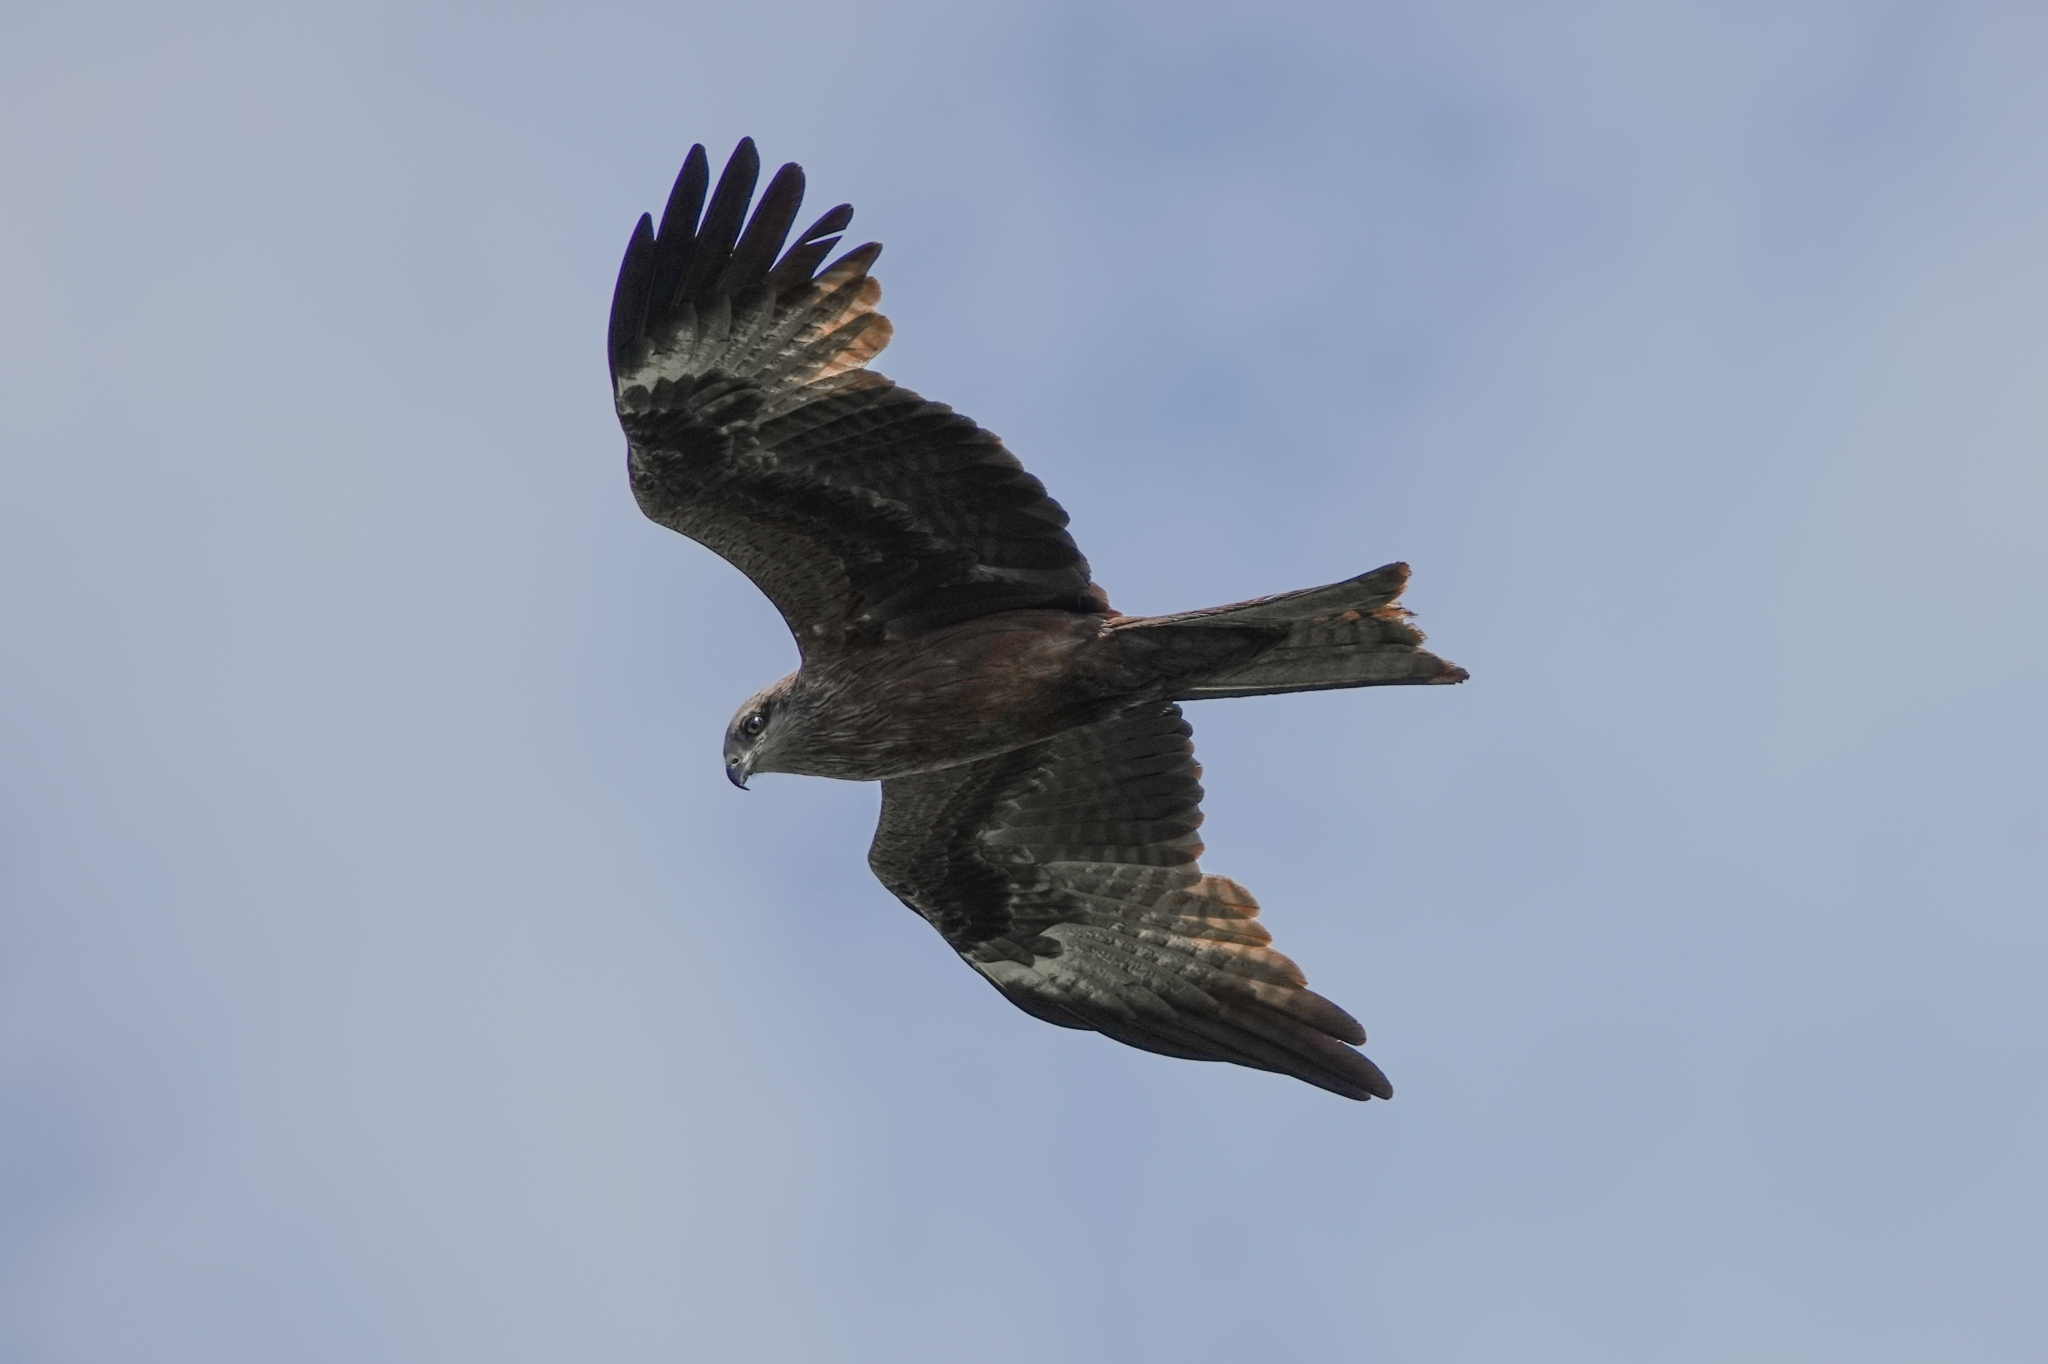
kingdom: Animalia
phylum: Chordata
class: Aves
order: Accipitriformes
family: Accipitridae
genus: Milvus
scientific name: Milvus migrans
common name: Black kite
